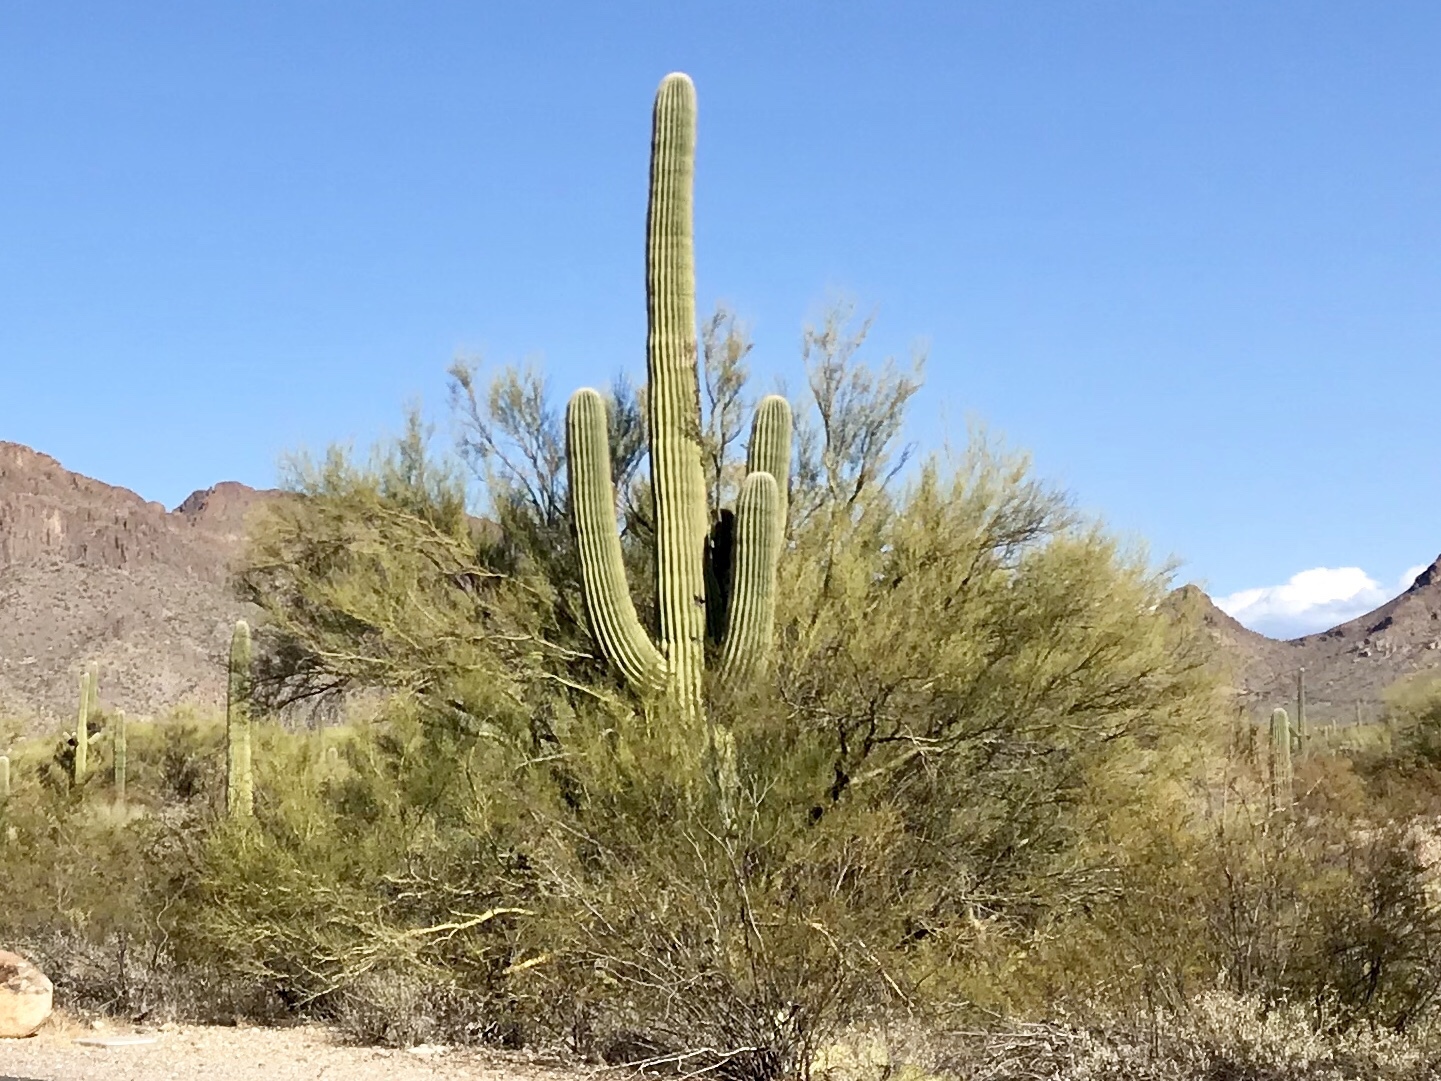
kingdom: Plantae
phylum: Tracheophyta
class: Magnoliopsida
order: Caryophyllales
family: Cactaceae
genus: Carnegiea
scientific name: Carnegiea gigantea
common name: Saguaro
